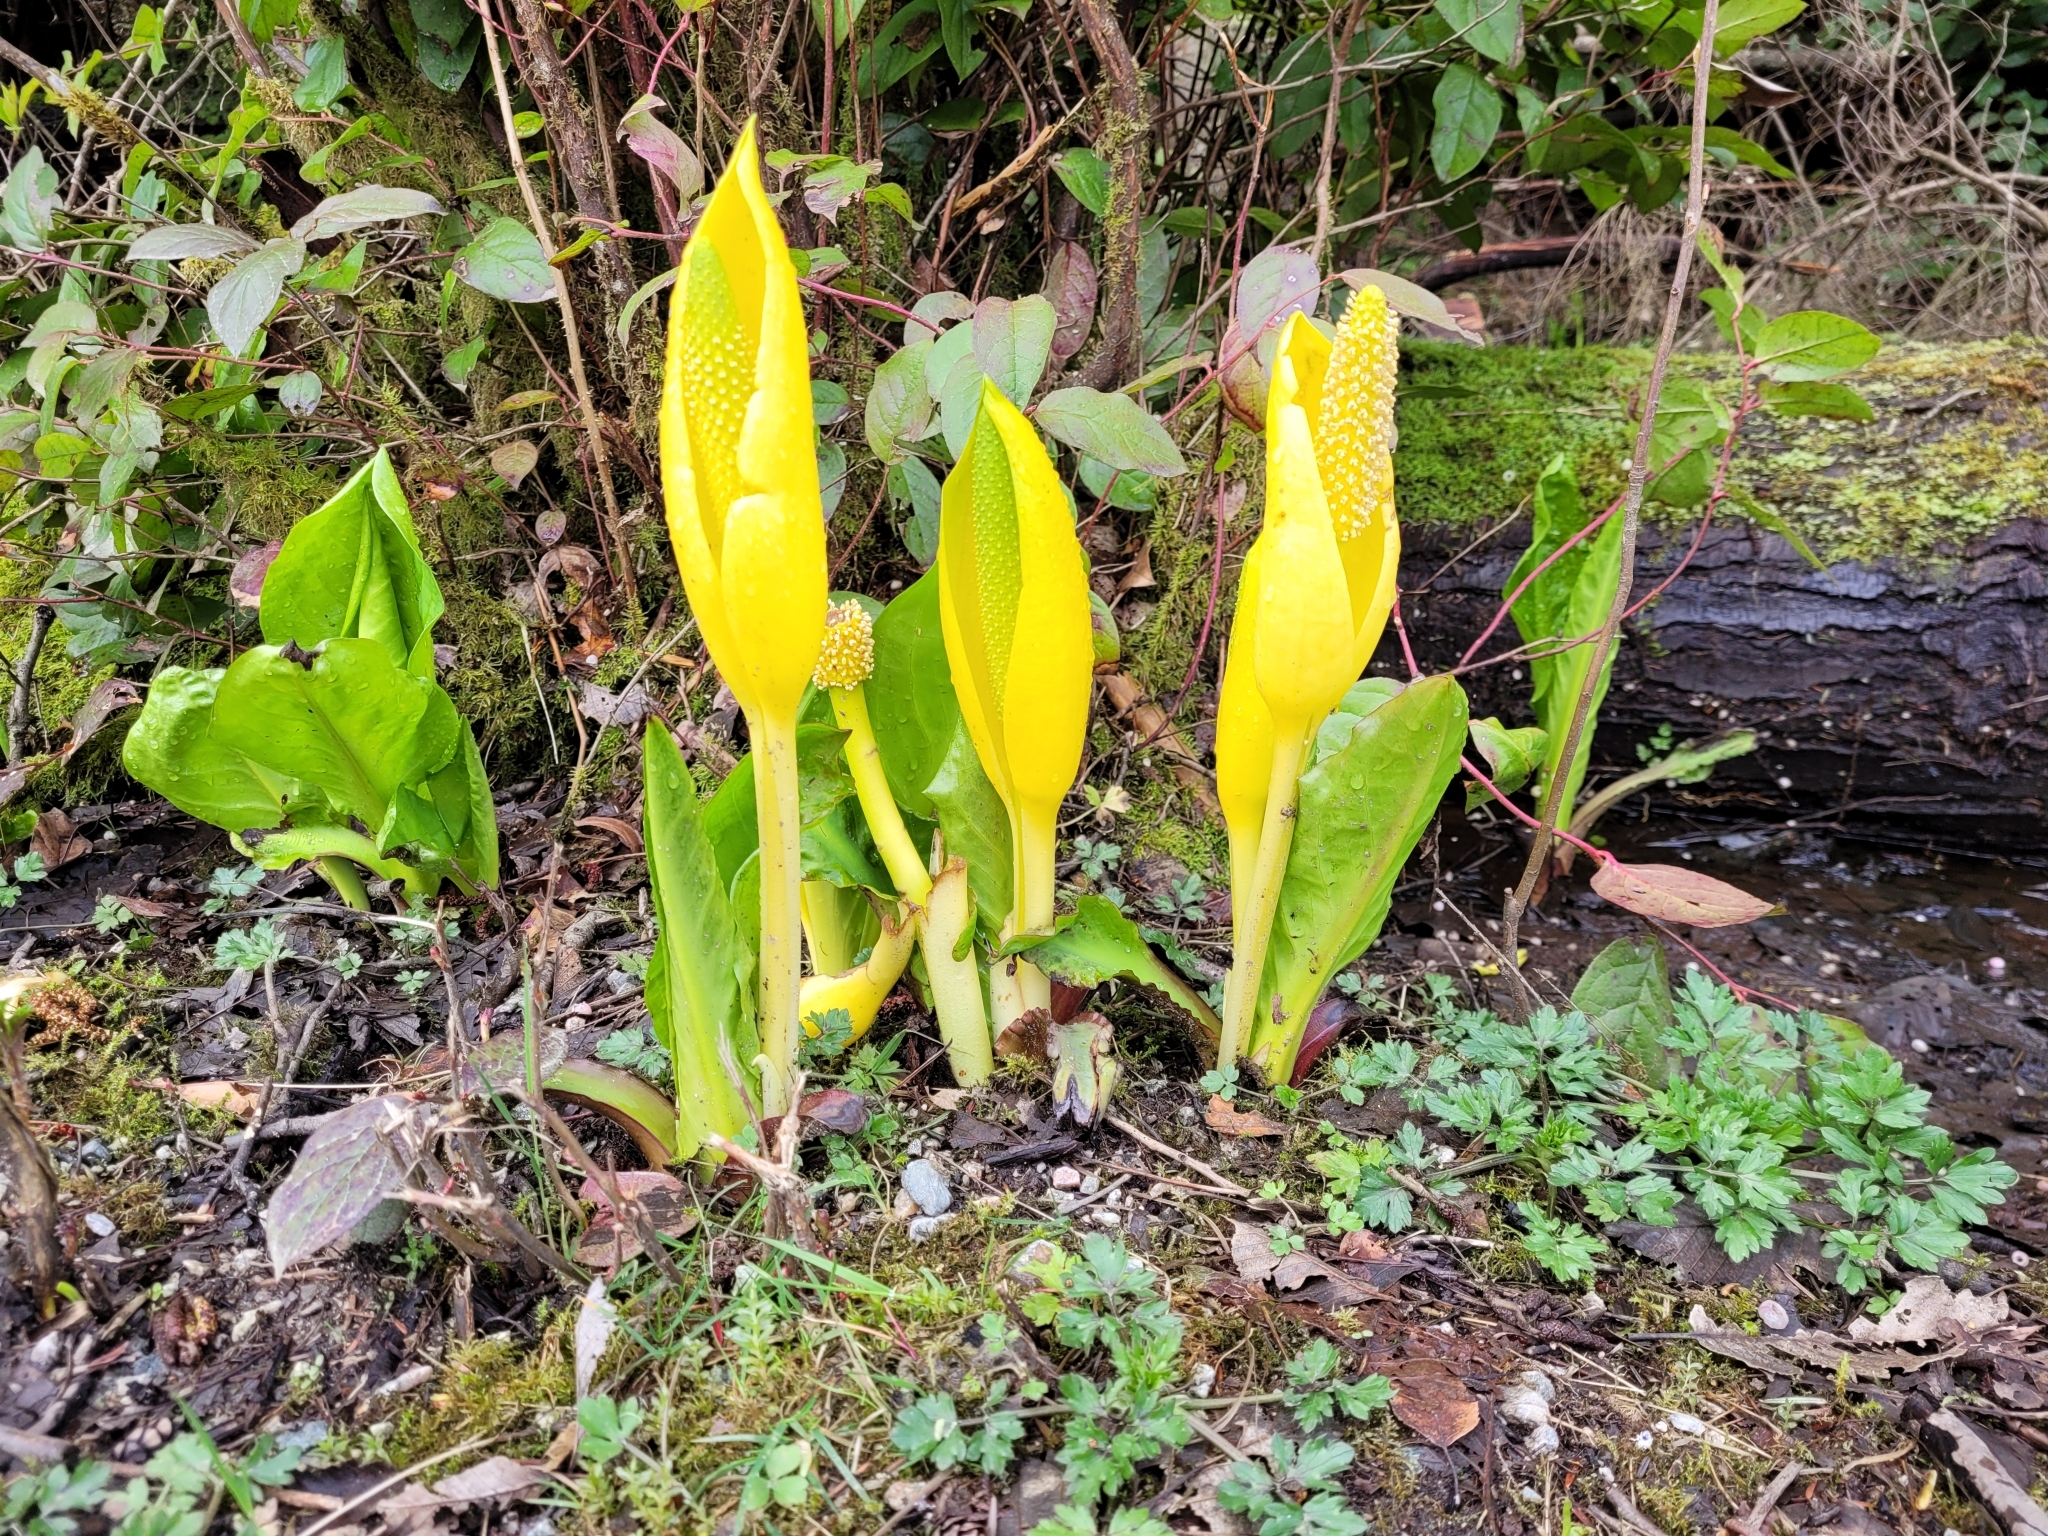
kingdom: Plantae
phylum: Tracheophyta
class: Liliopsida
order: Alismatales
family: Araceae
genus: Lysichiton
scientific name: Lysichiton americanus
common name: American skunk cabbage
